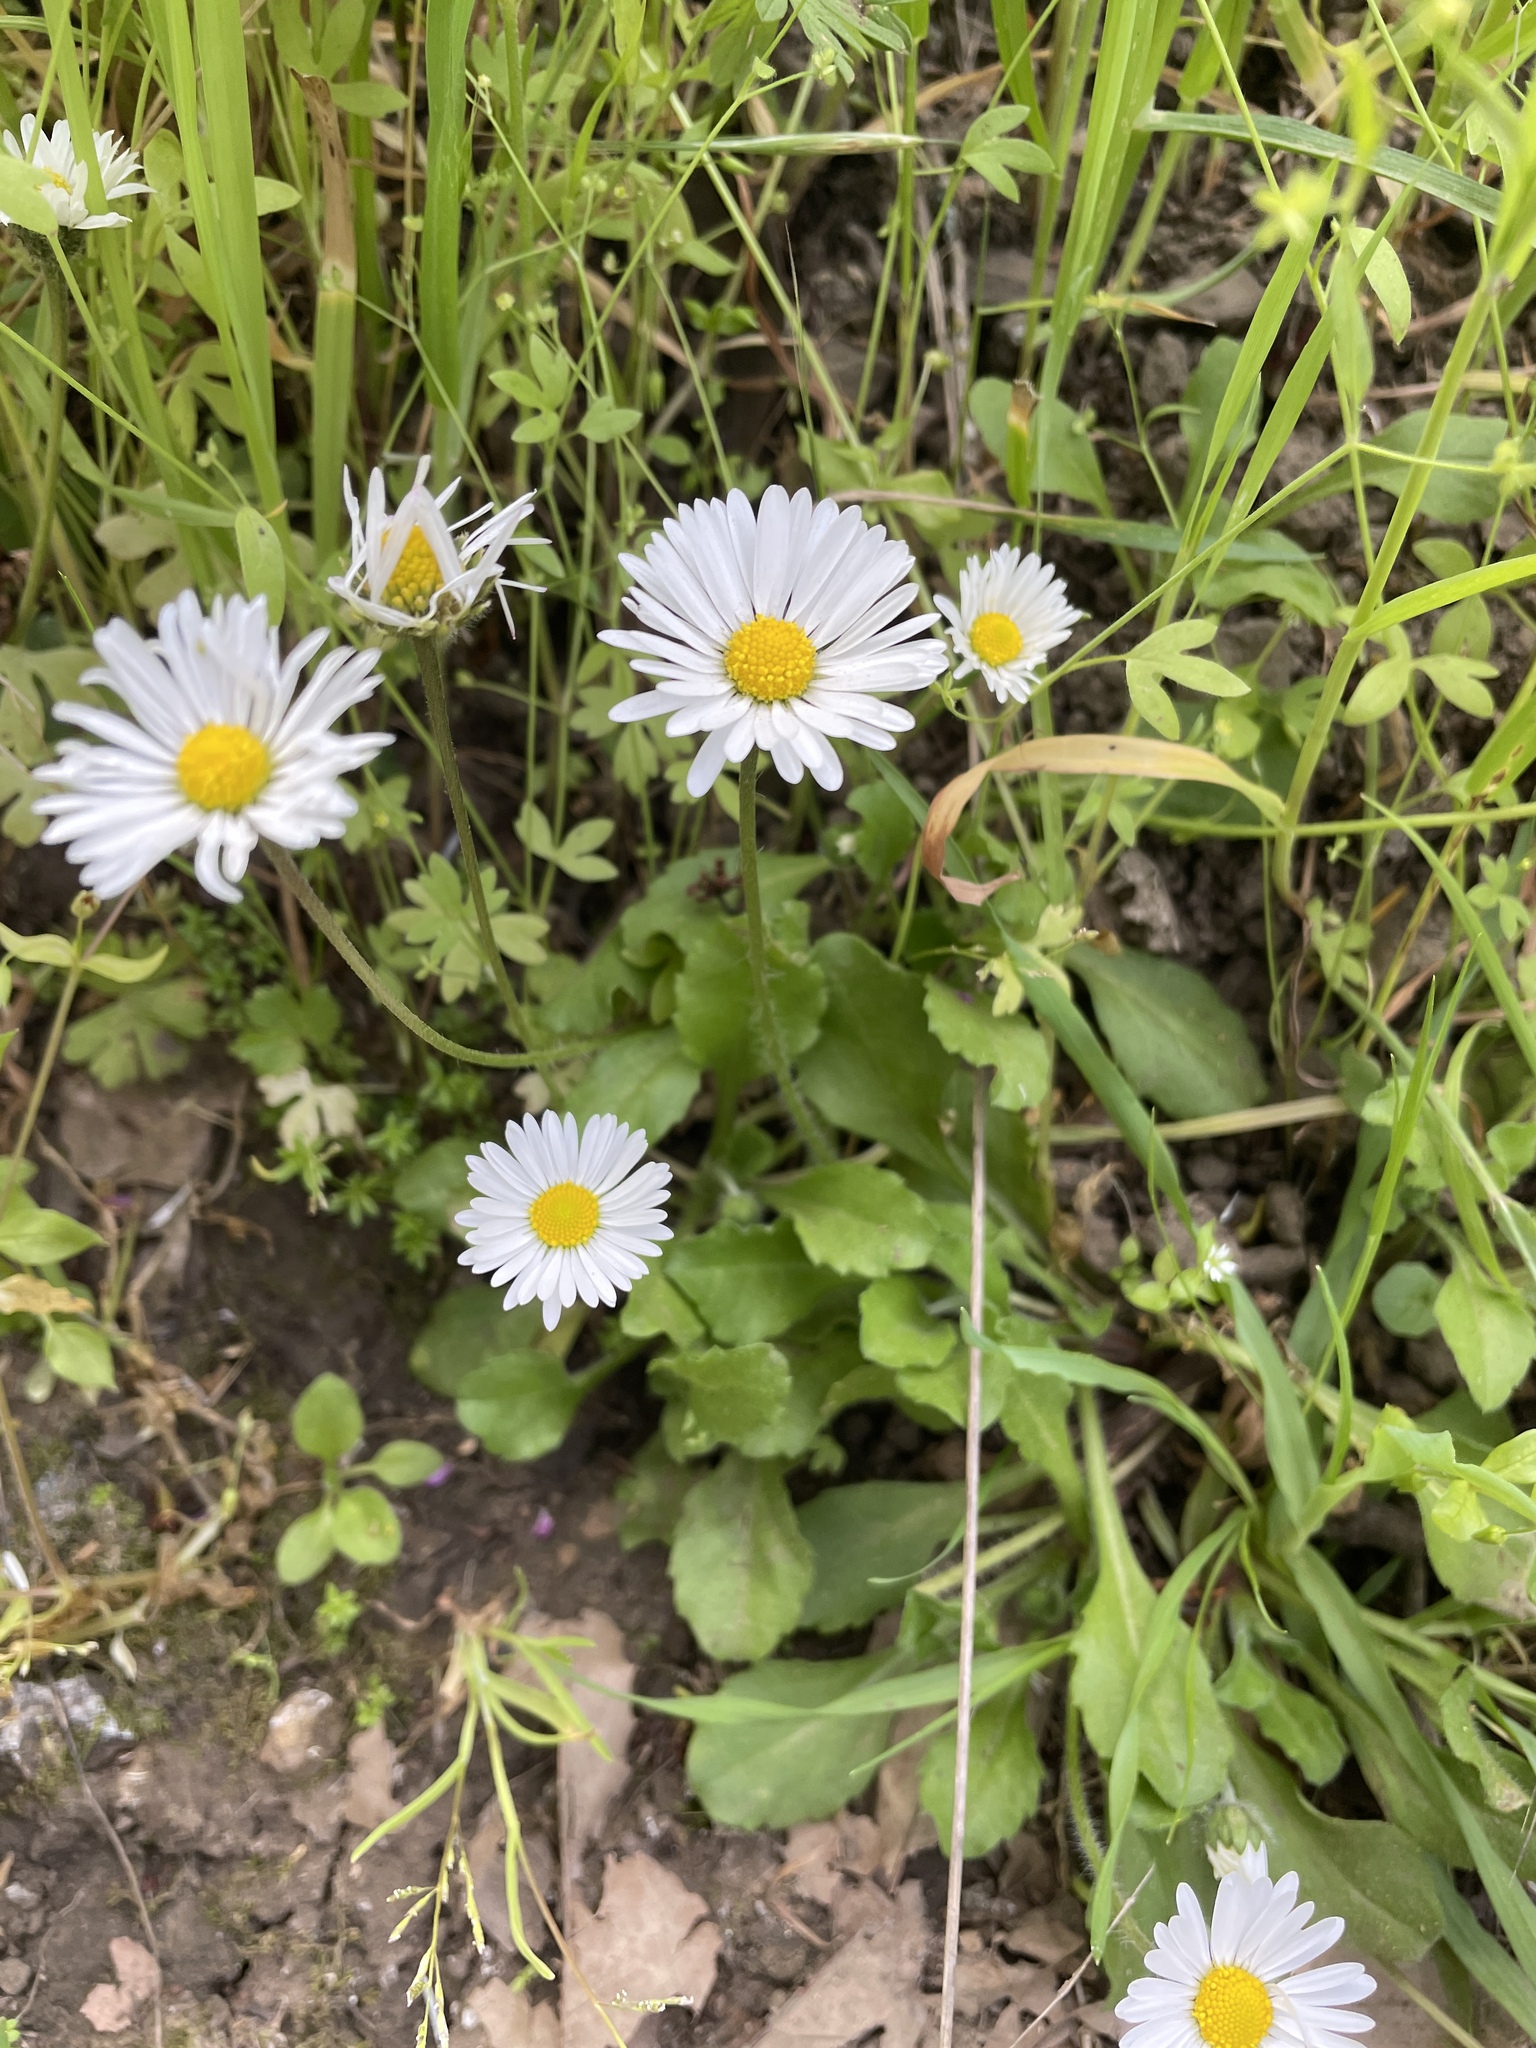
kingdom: Plantae
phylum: Tracheophyta
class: Magnoliopsida
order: Asterales
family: Asteraceae
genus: Bellis
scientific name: Bellis perennis
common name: Lawndaisy
